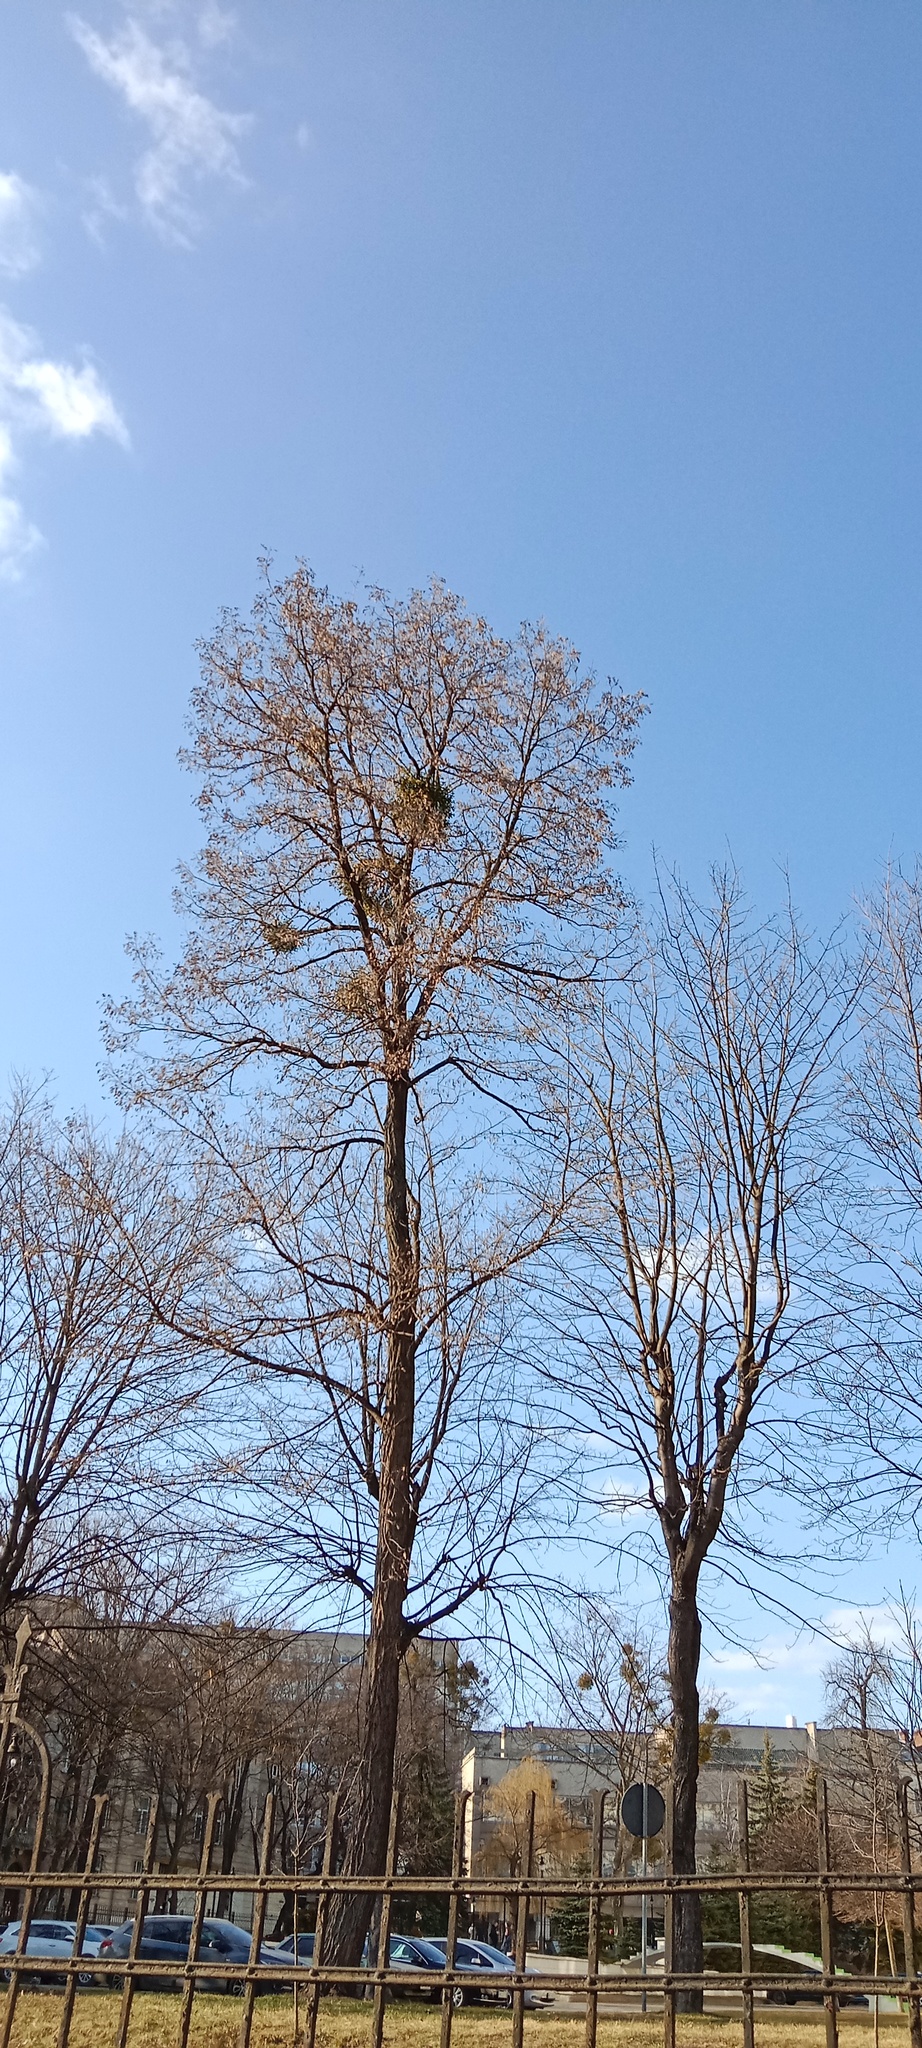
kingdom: Plantae
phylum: Tracheophyta
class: Magnoliopsida
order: Santalales
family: Viscaceae
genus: Viscum
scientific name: Viscum album
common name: Mistletoe
